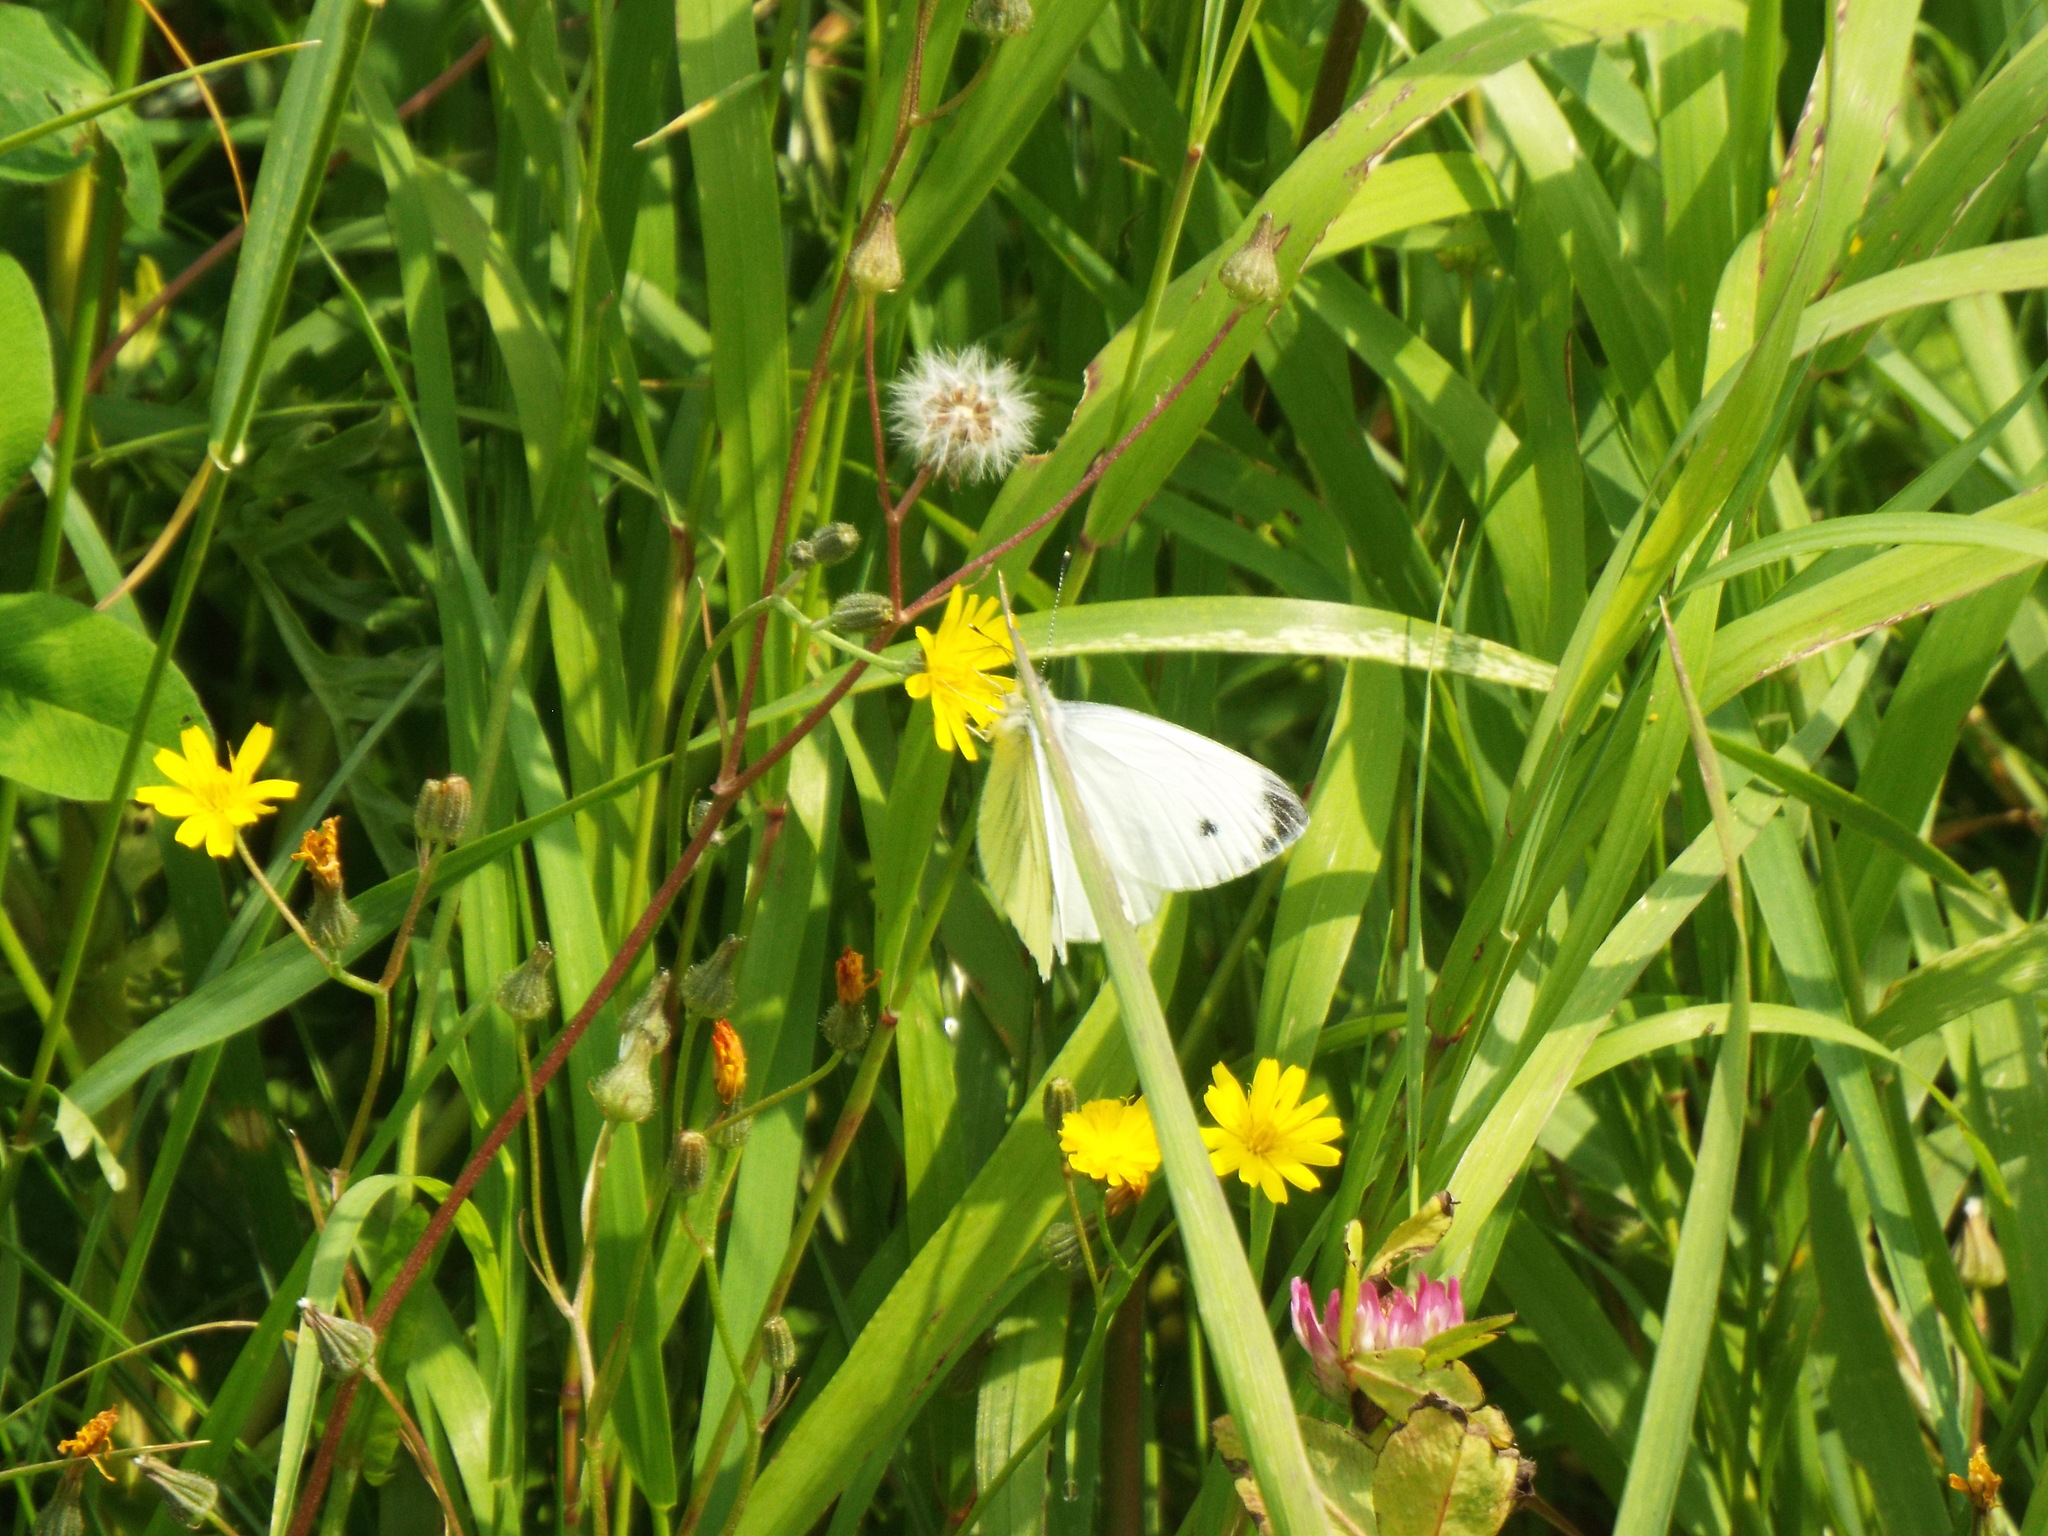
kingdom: Animalia
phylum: Arthropoda
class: Insecta
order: Lepidoptera
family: Pieridae
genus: Pieris
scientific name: Pieris napi
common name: Green-veined white
